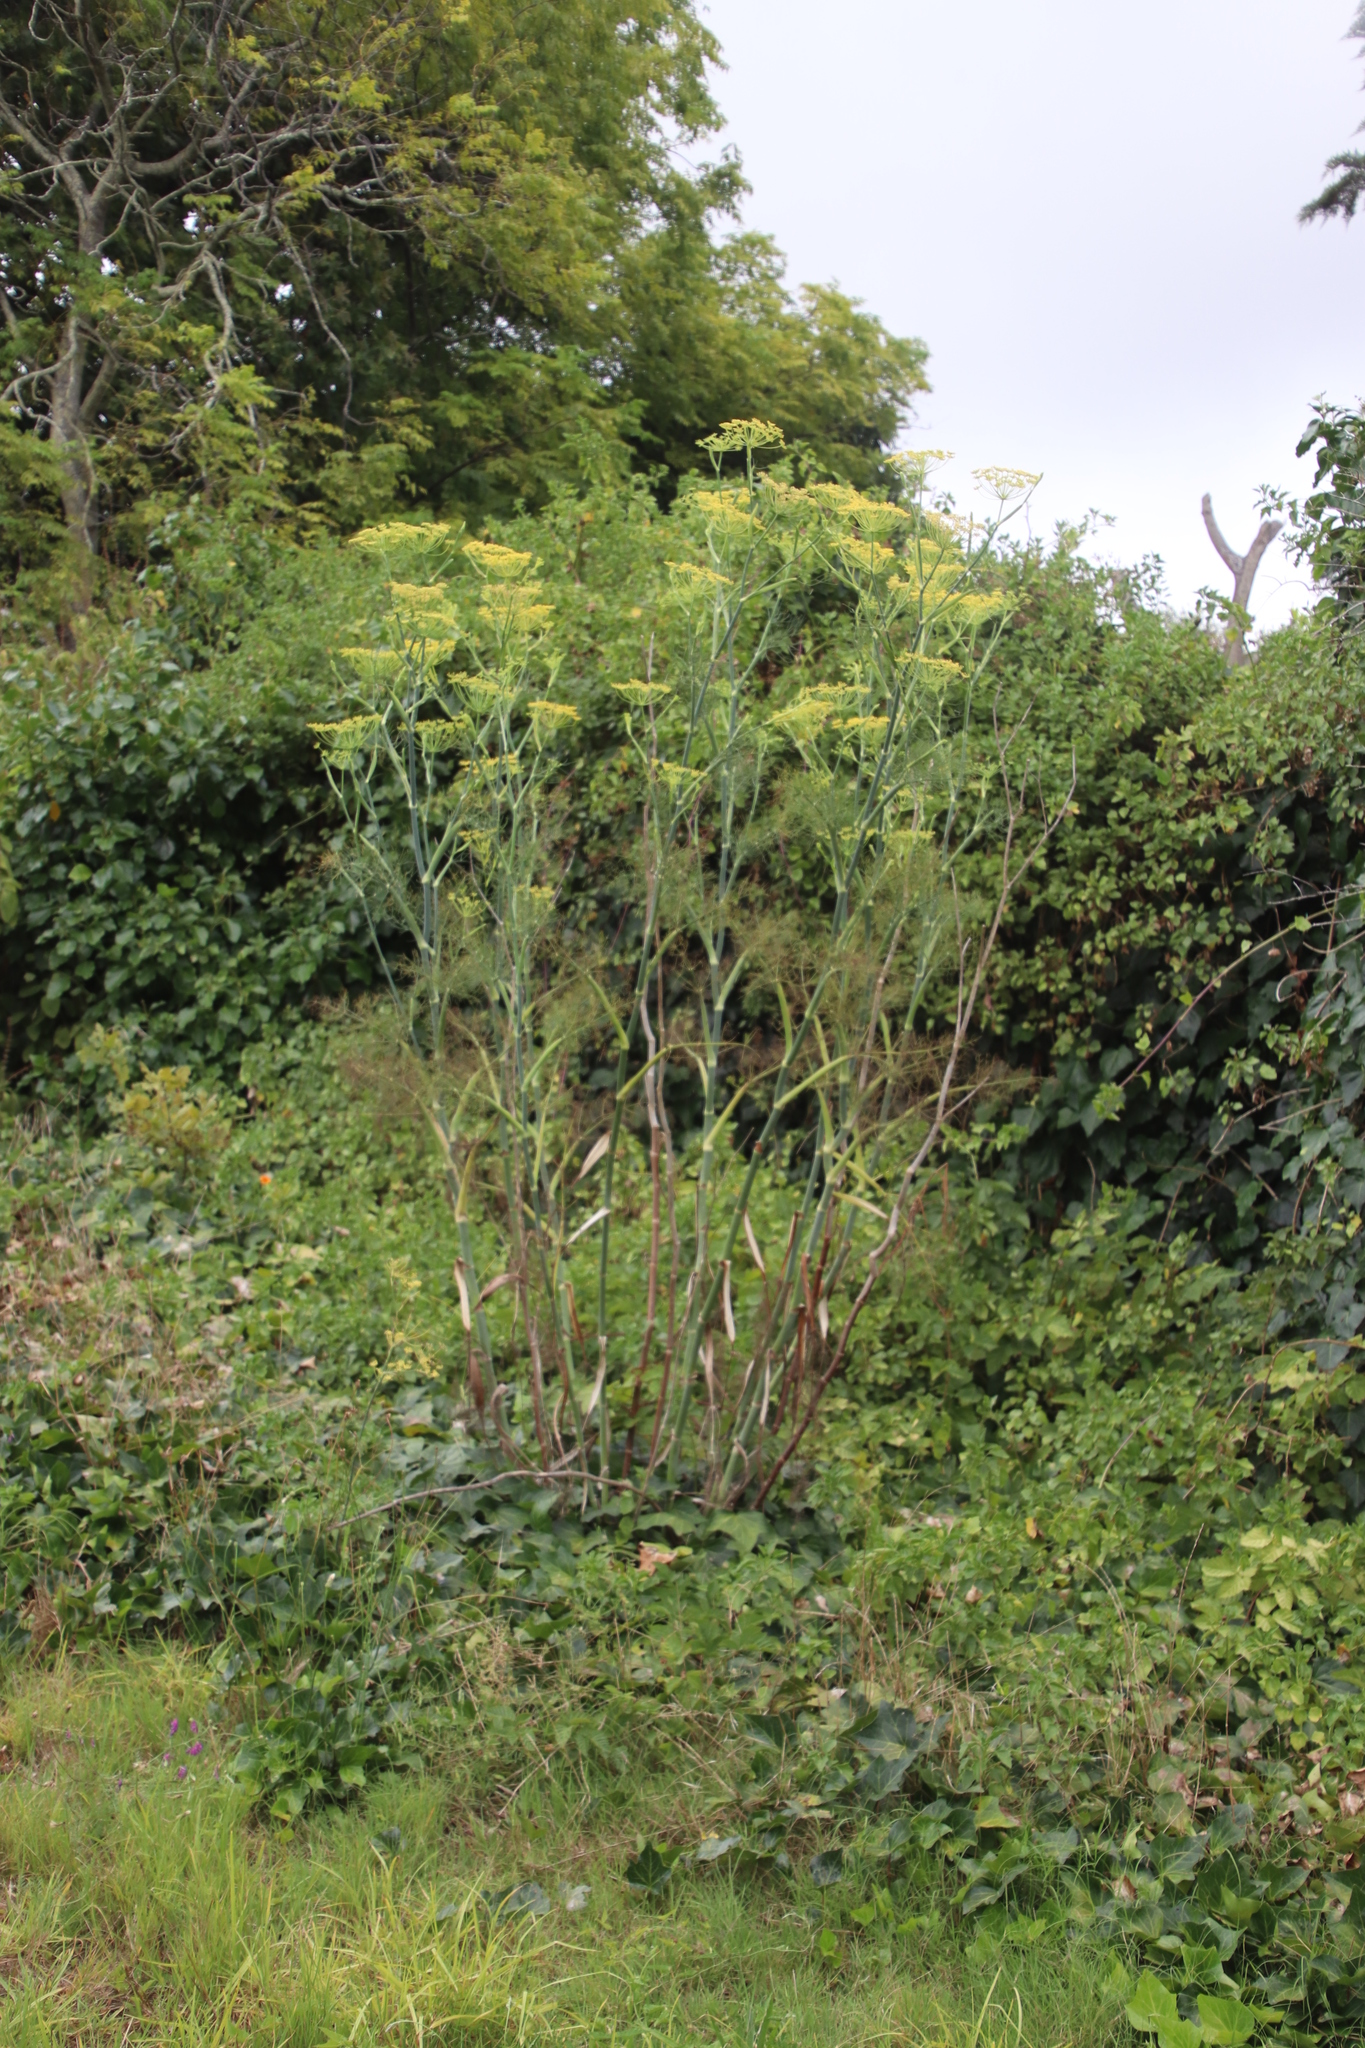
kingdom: Plantae
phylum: Tracheophyta
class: Magnoliopsida
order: Apiales
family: Apiaceae
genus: Foeniculum
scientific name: Foeniculum vulgare
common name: Fennel
